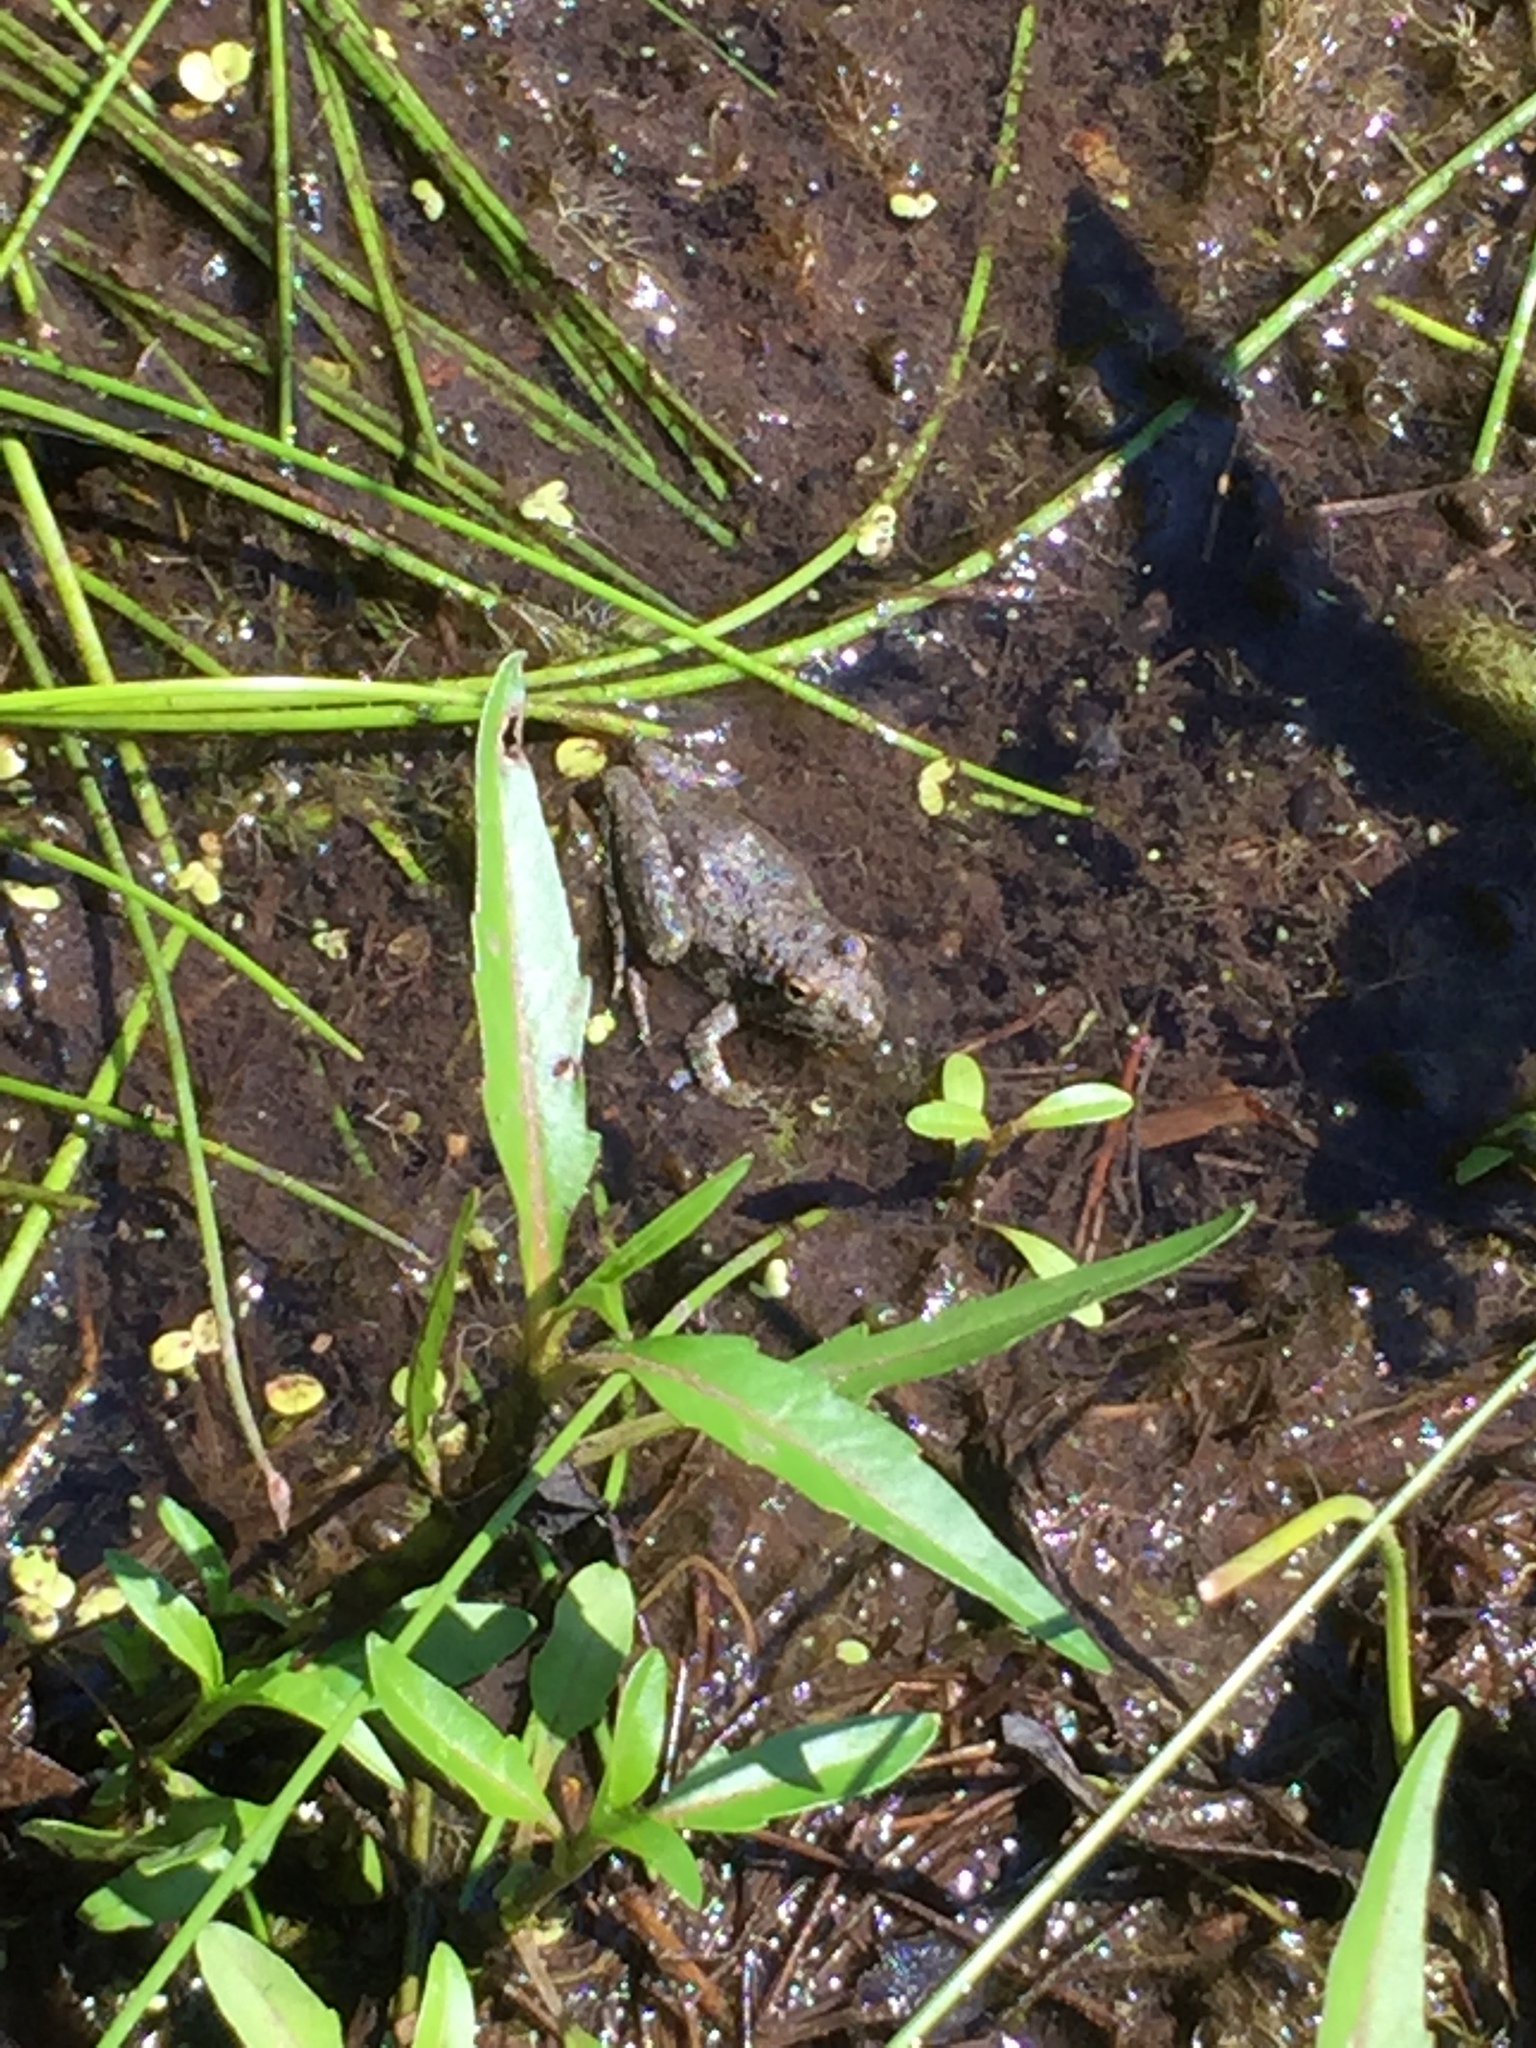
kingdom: Animalia
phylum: Chordata
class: Amphibia
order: Anura
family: Hylidae
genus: Acris
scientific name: Acris blanchardi
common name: Blanchard's cricket frog
